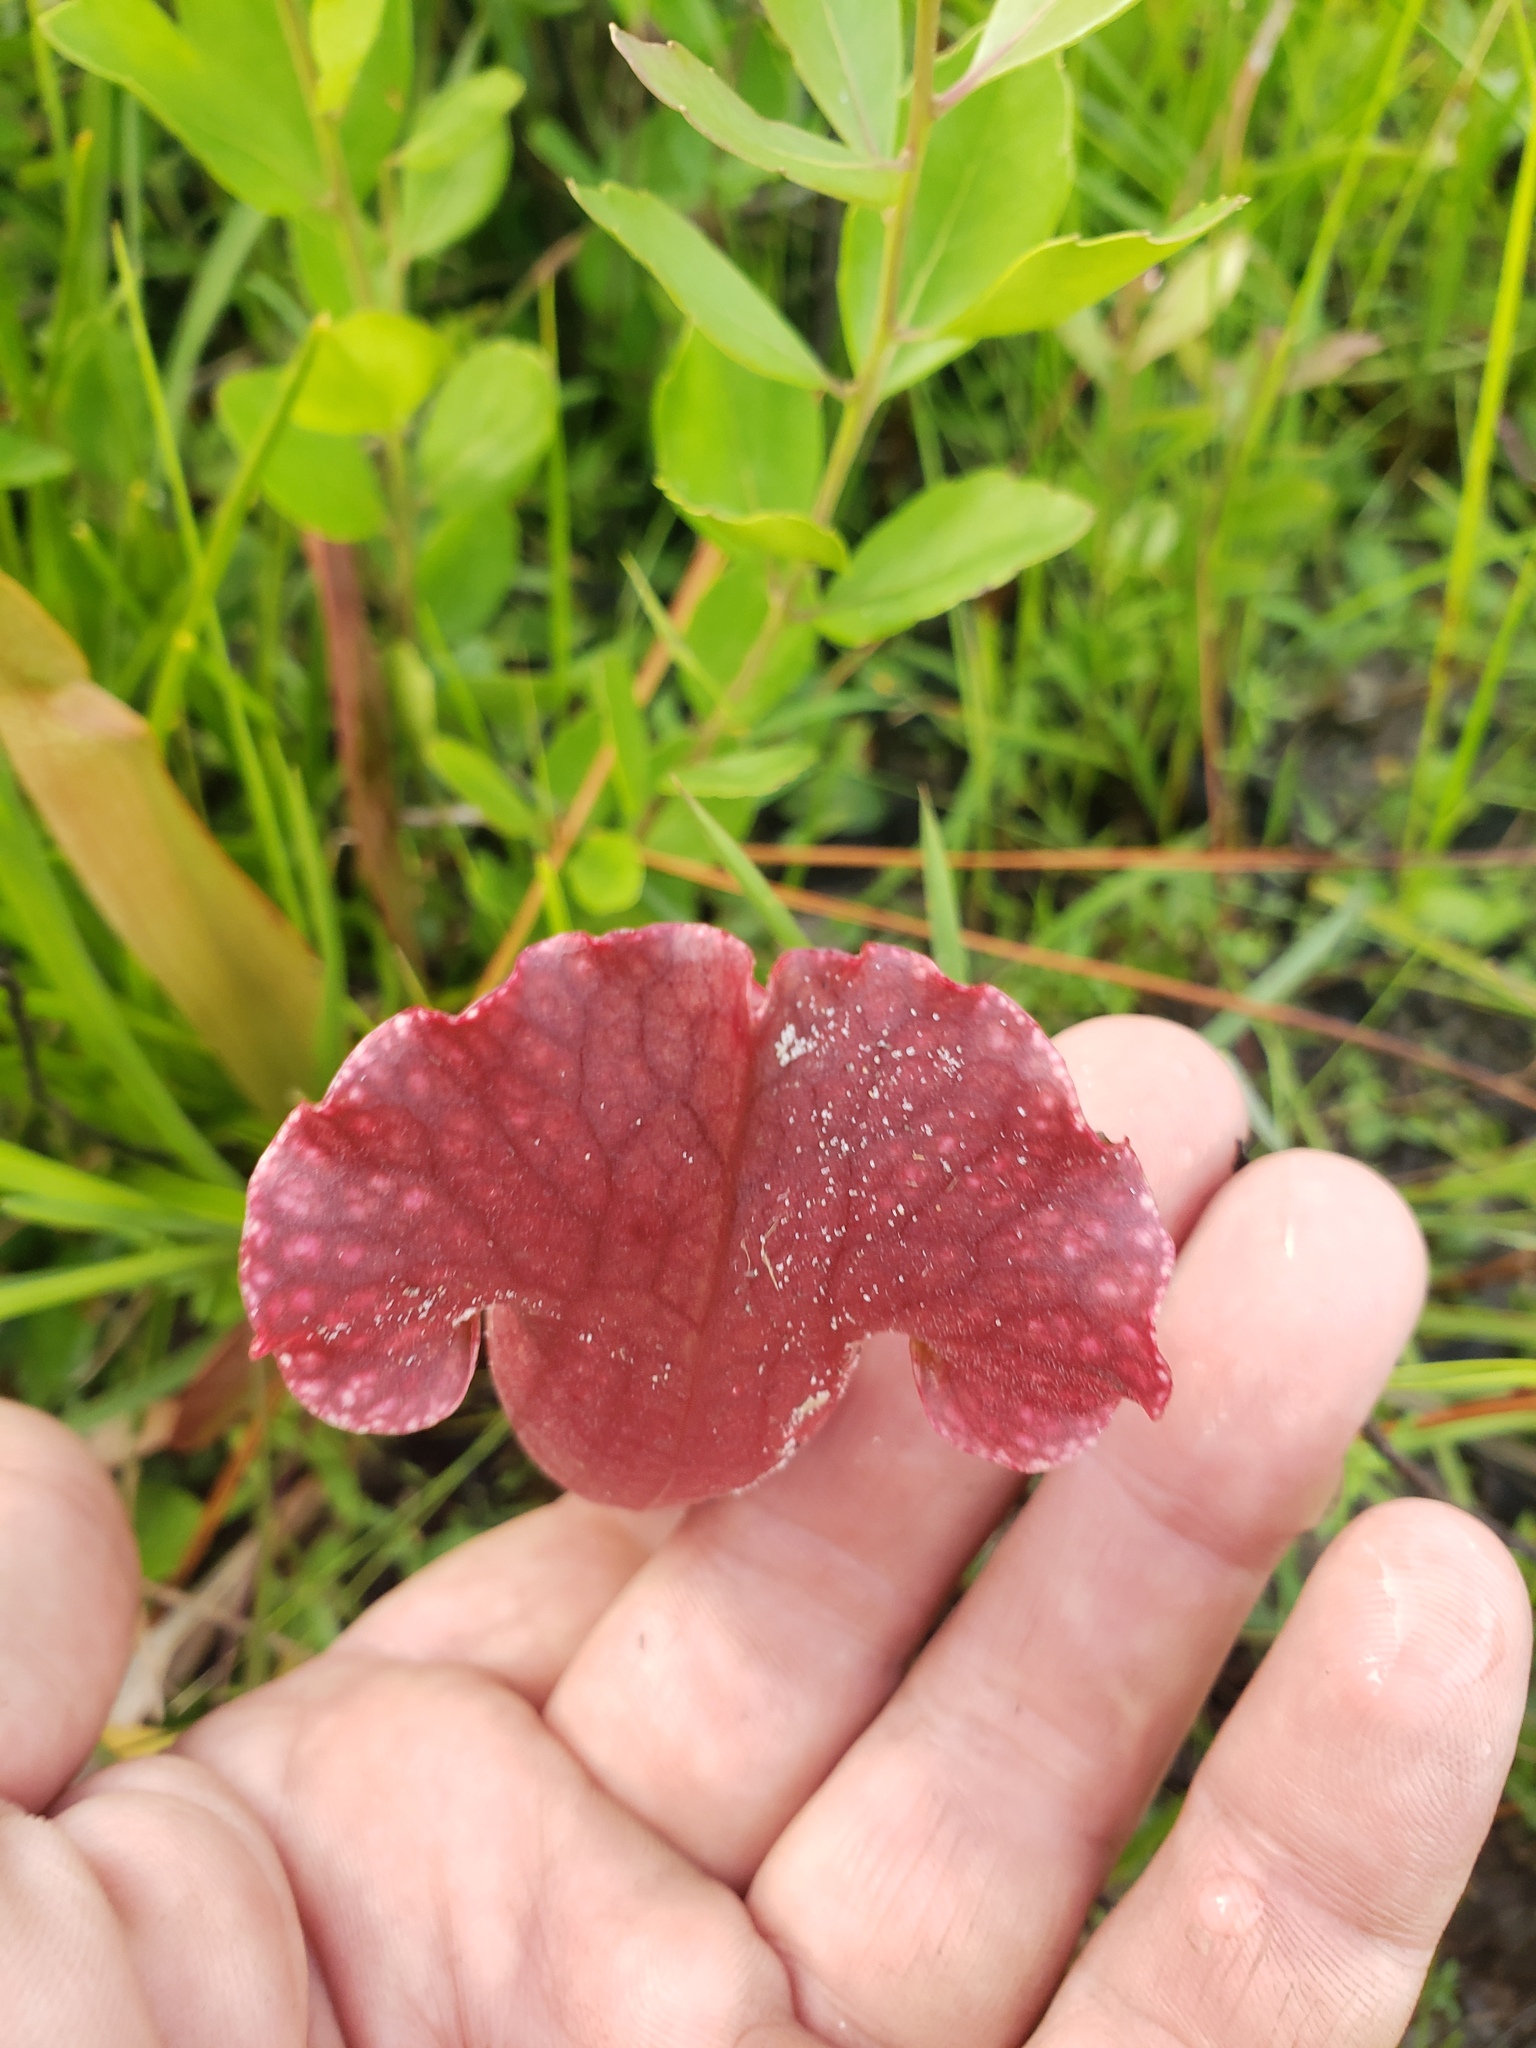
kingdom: Plantae
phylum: Tracheophyta
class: Magnoliopsida
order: Ericales
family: Sarraceniaceae
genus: Sarracenia
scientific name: Sarracenia mitchelliana
